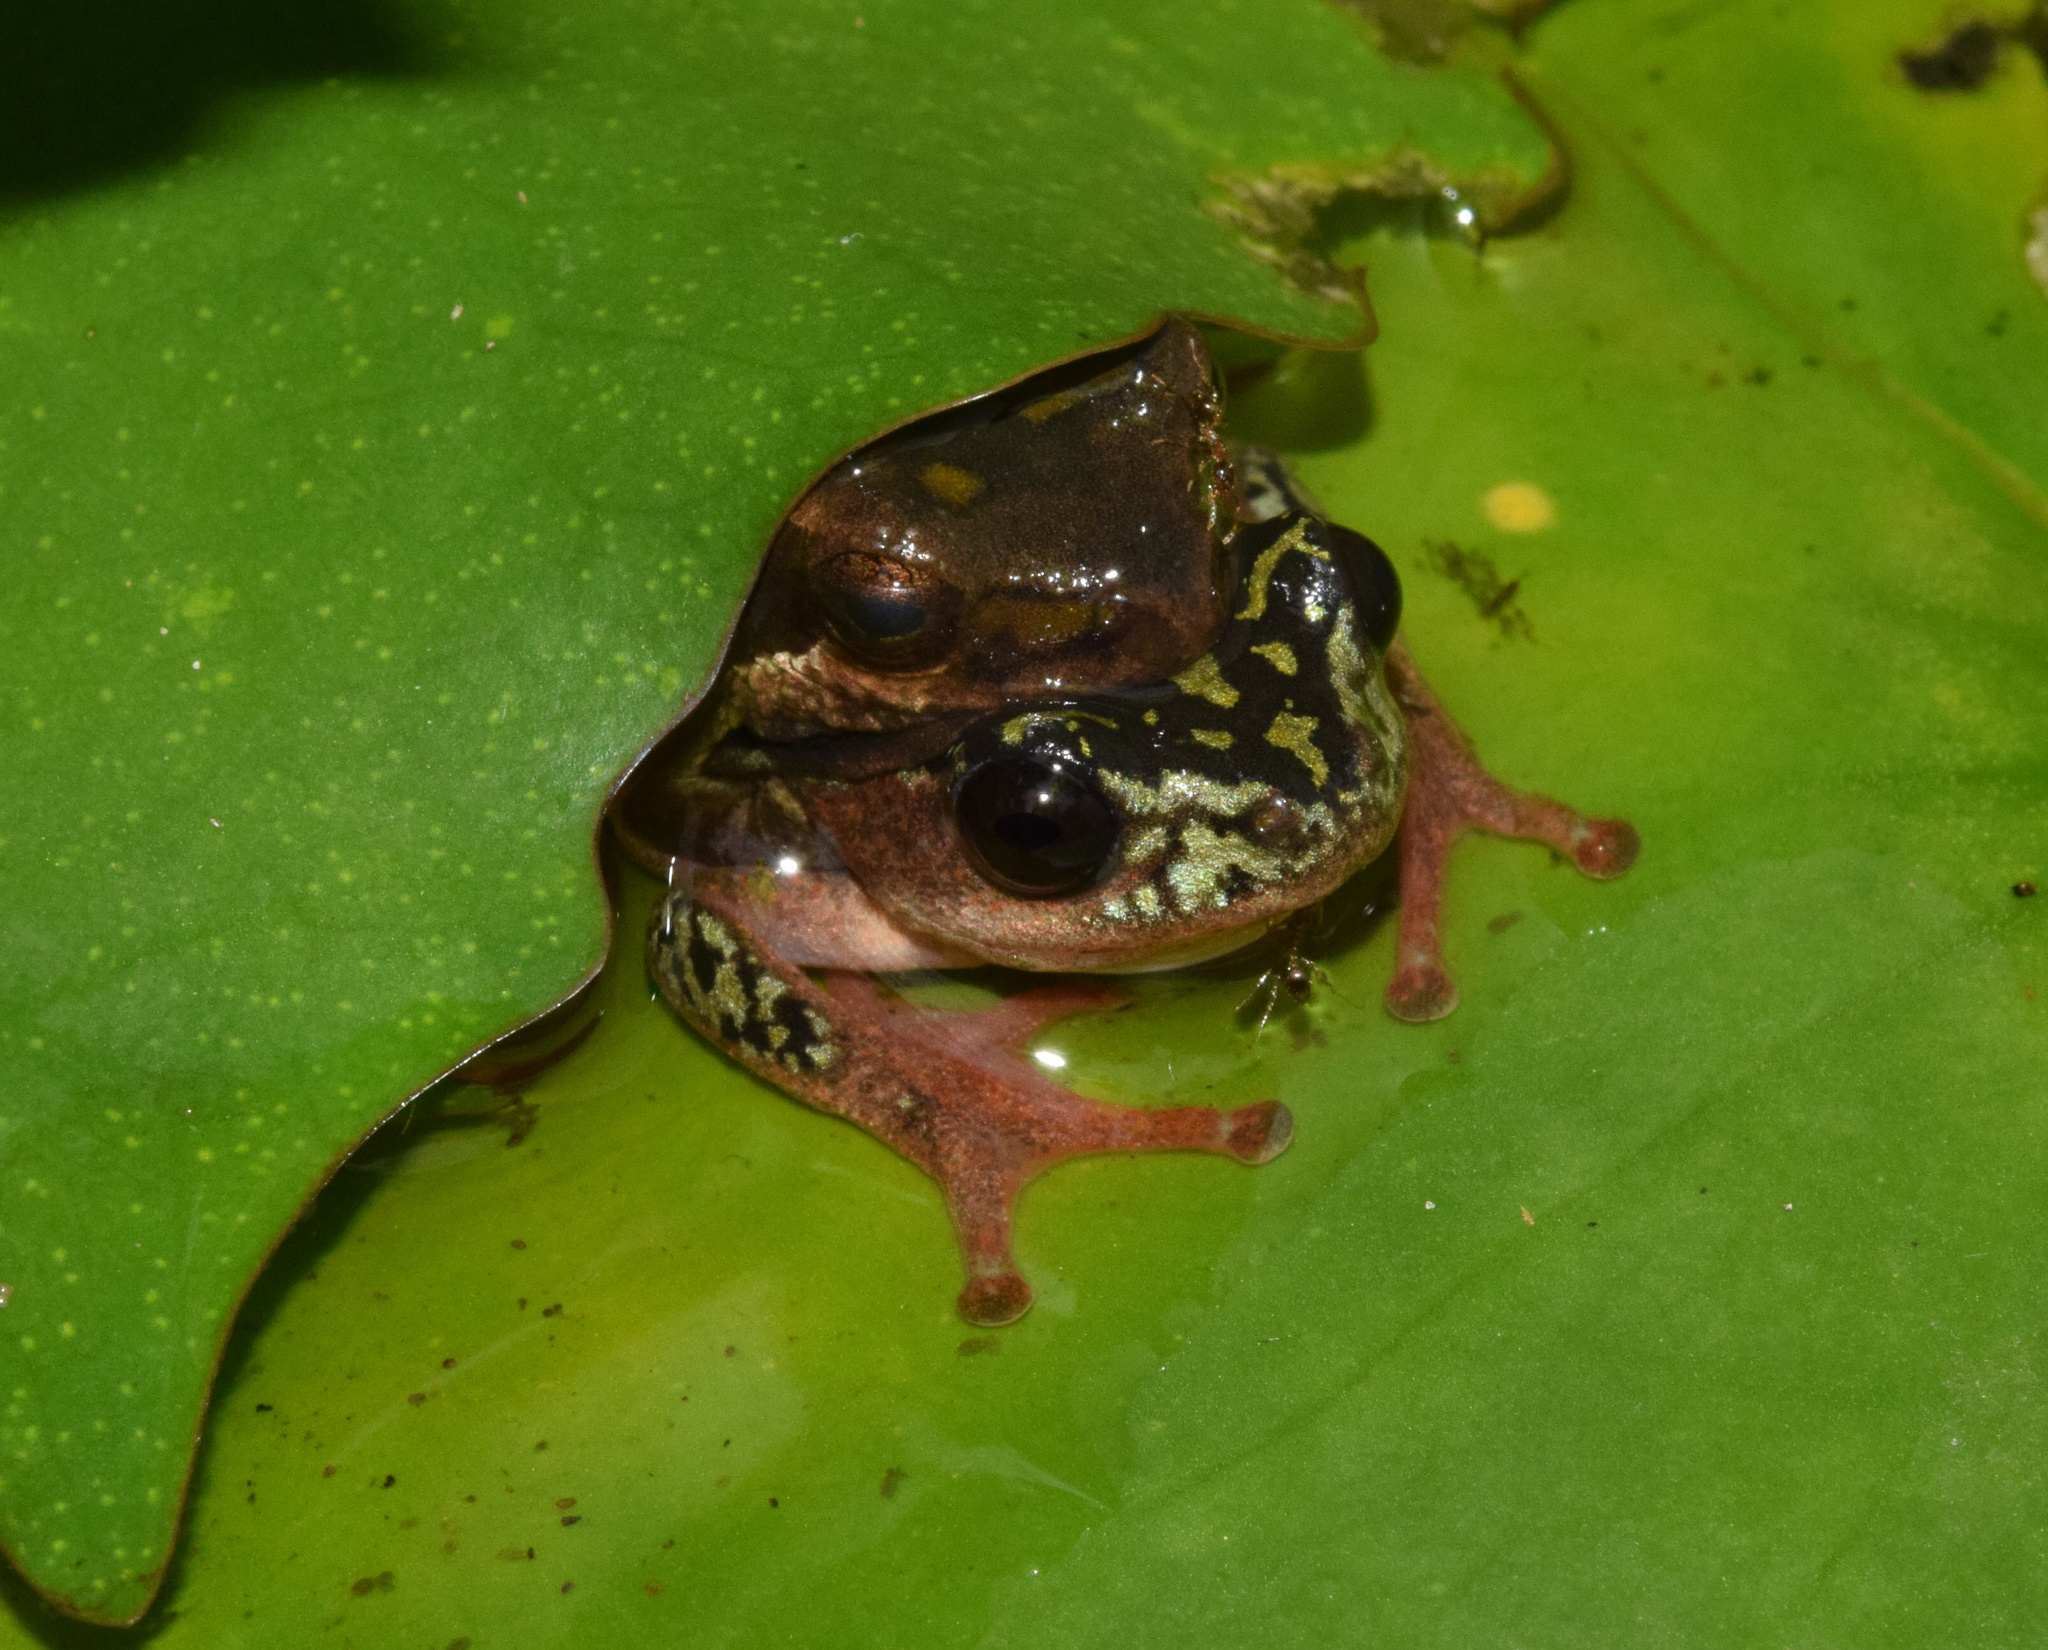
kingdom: Animalia
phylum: Chordata
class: Amphibia
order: Anura
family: Hyperoliidae
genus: Hyperolius
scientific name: Hyperolius marmoratus
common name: Painted reed frog
